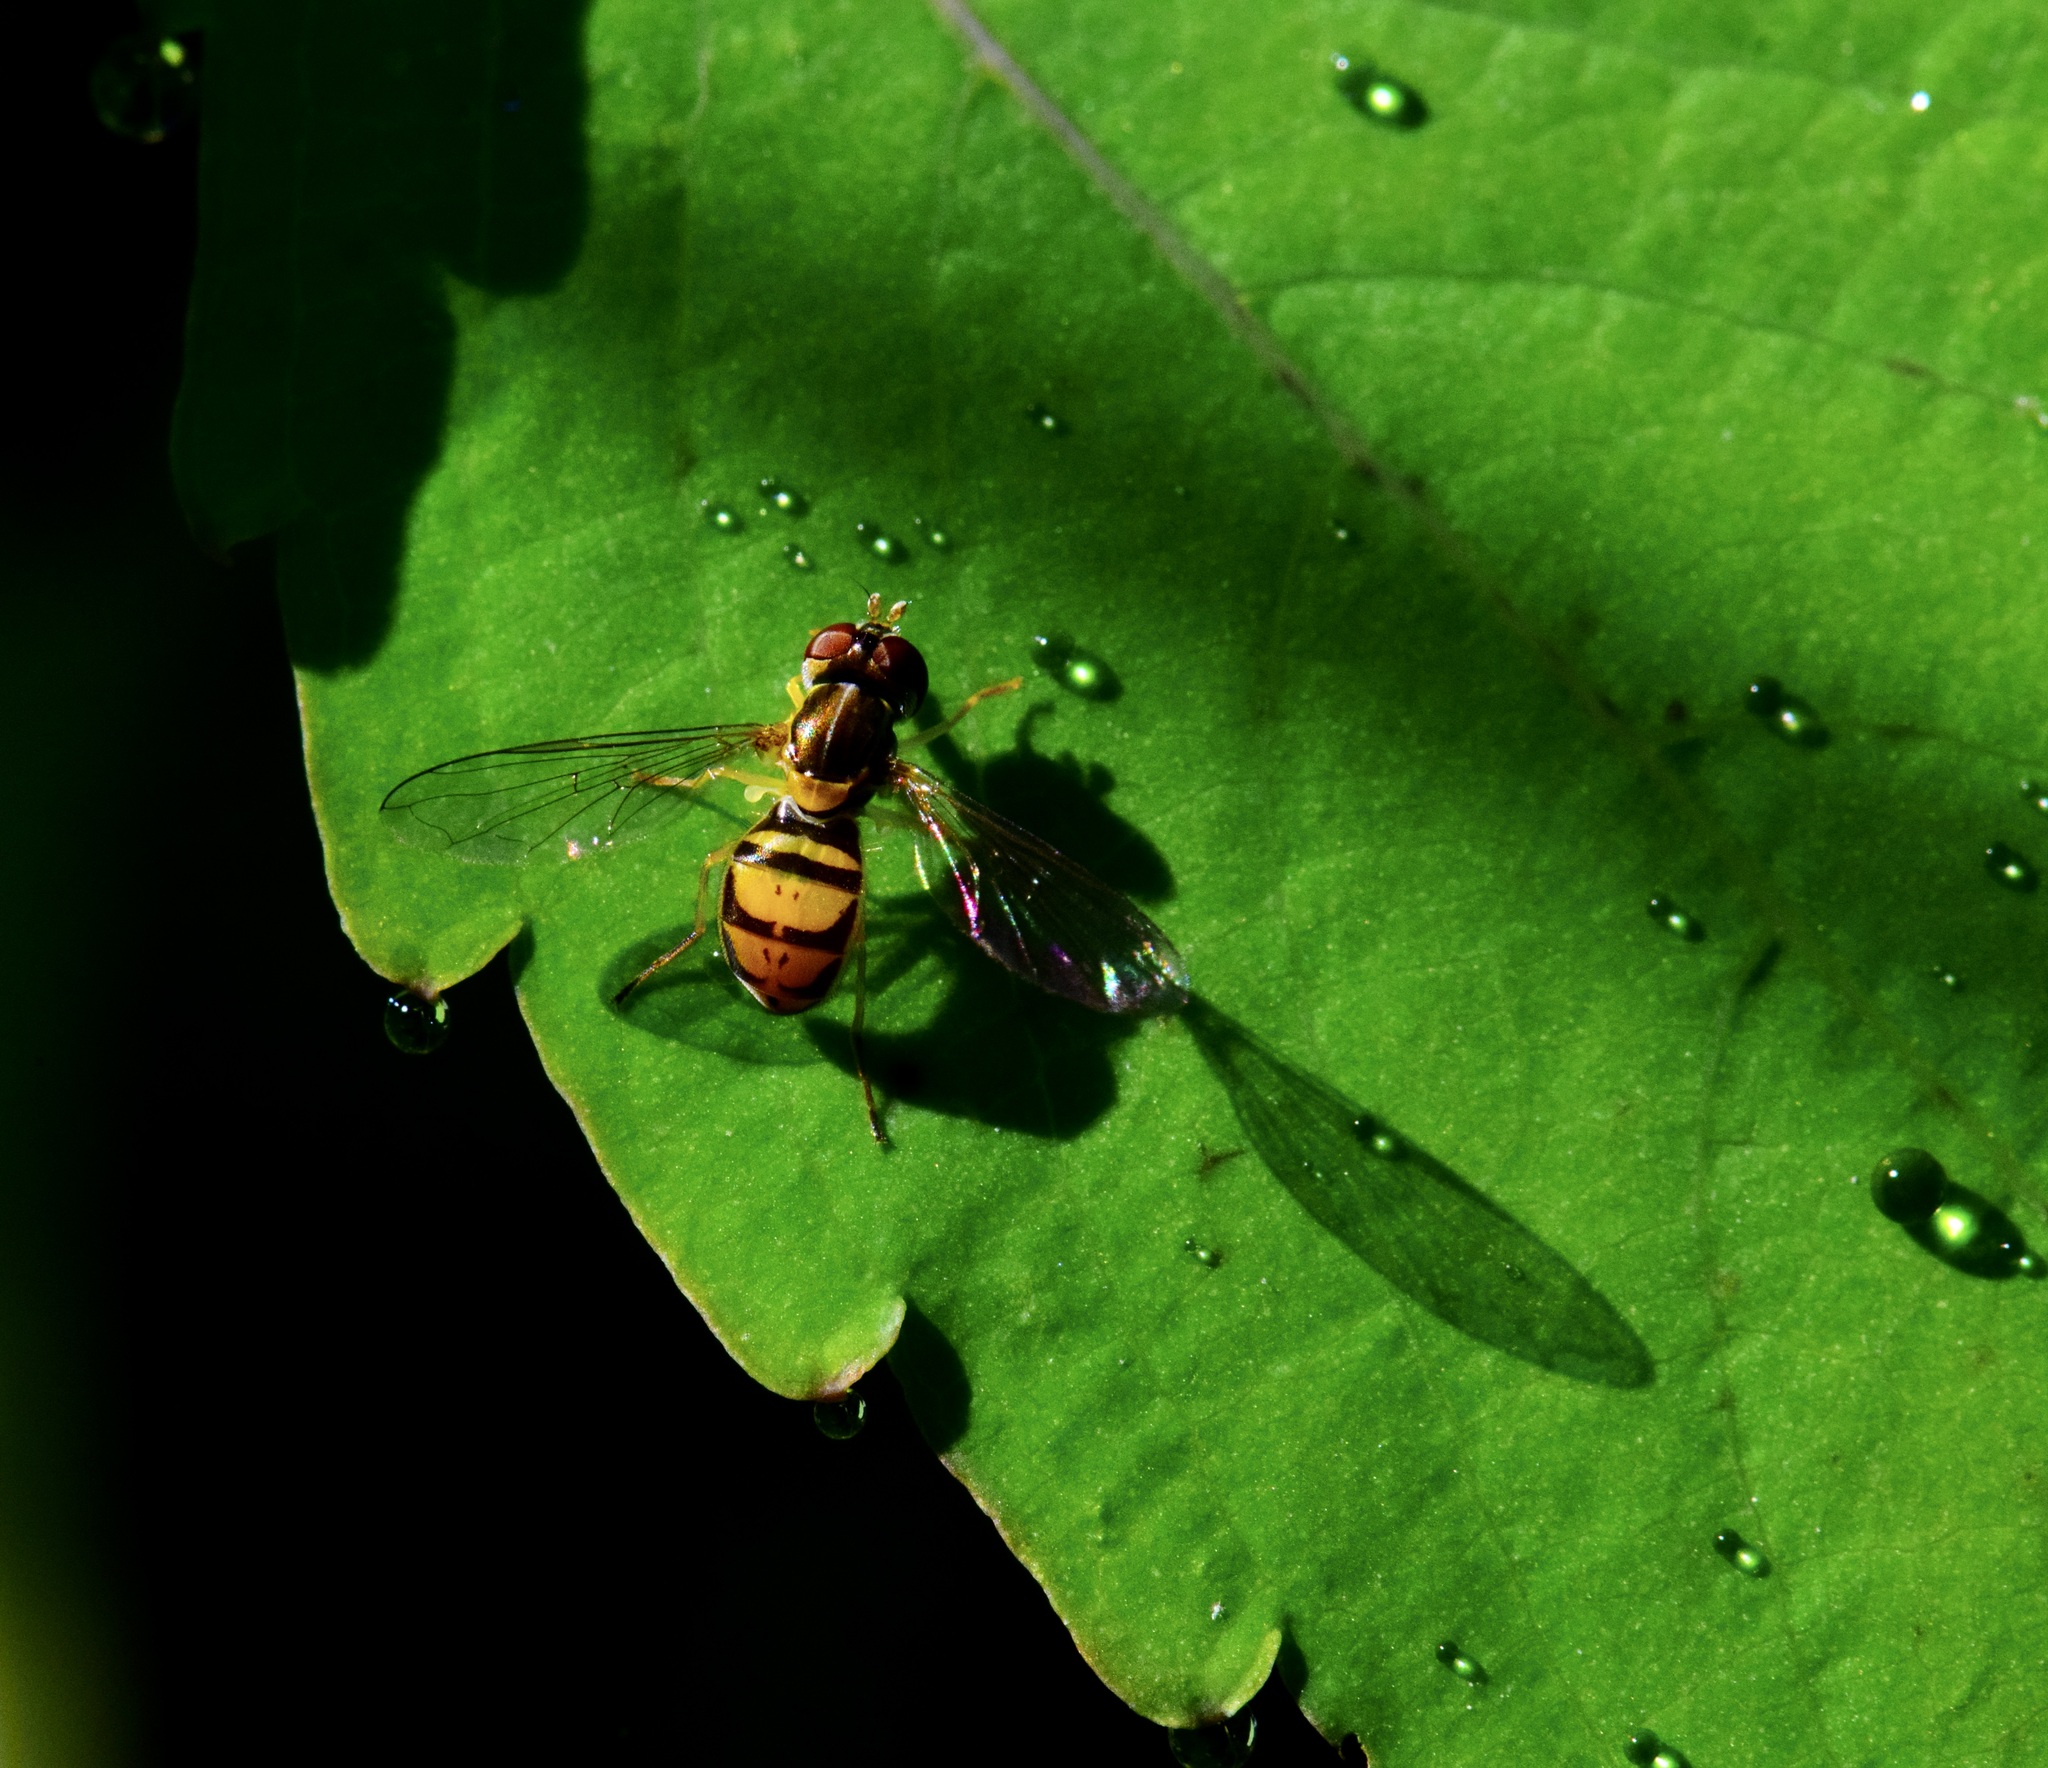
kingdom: Animalia
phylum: Arthropoda
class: Insecta
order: Diptera
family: Syrphidae
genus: Toxomerus
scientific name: Toxomerus marginatus
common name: Syrphid fly
